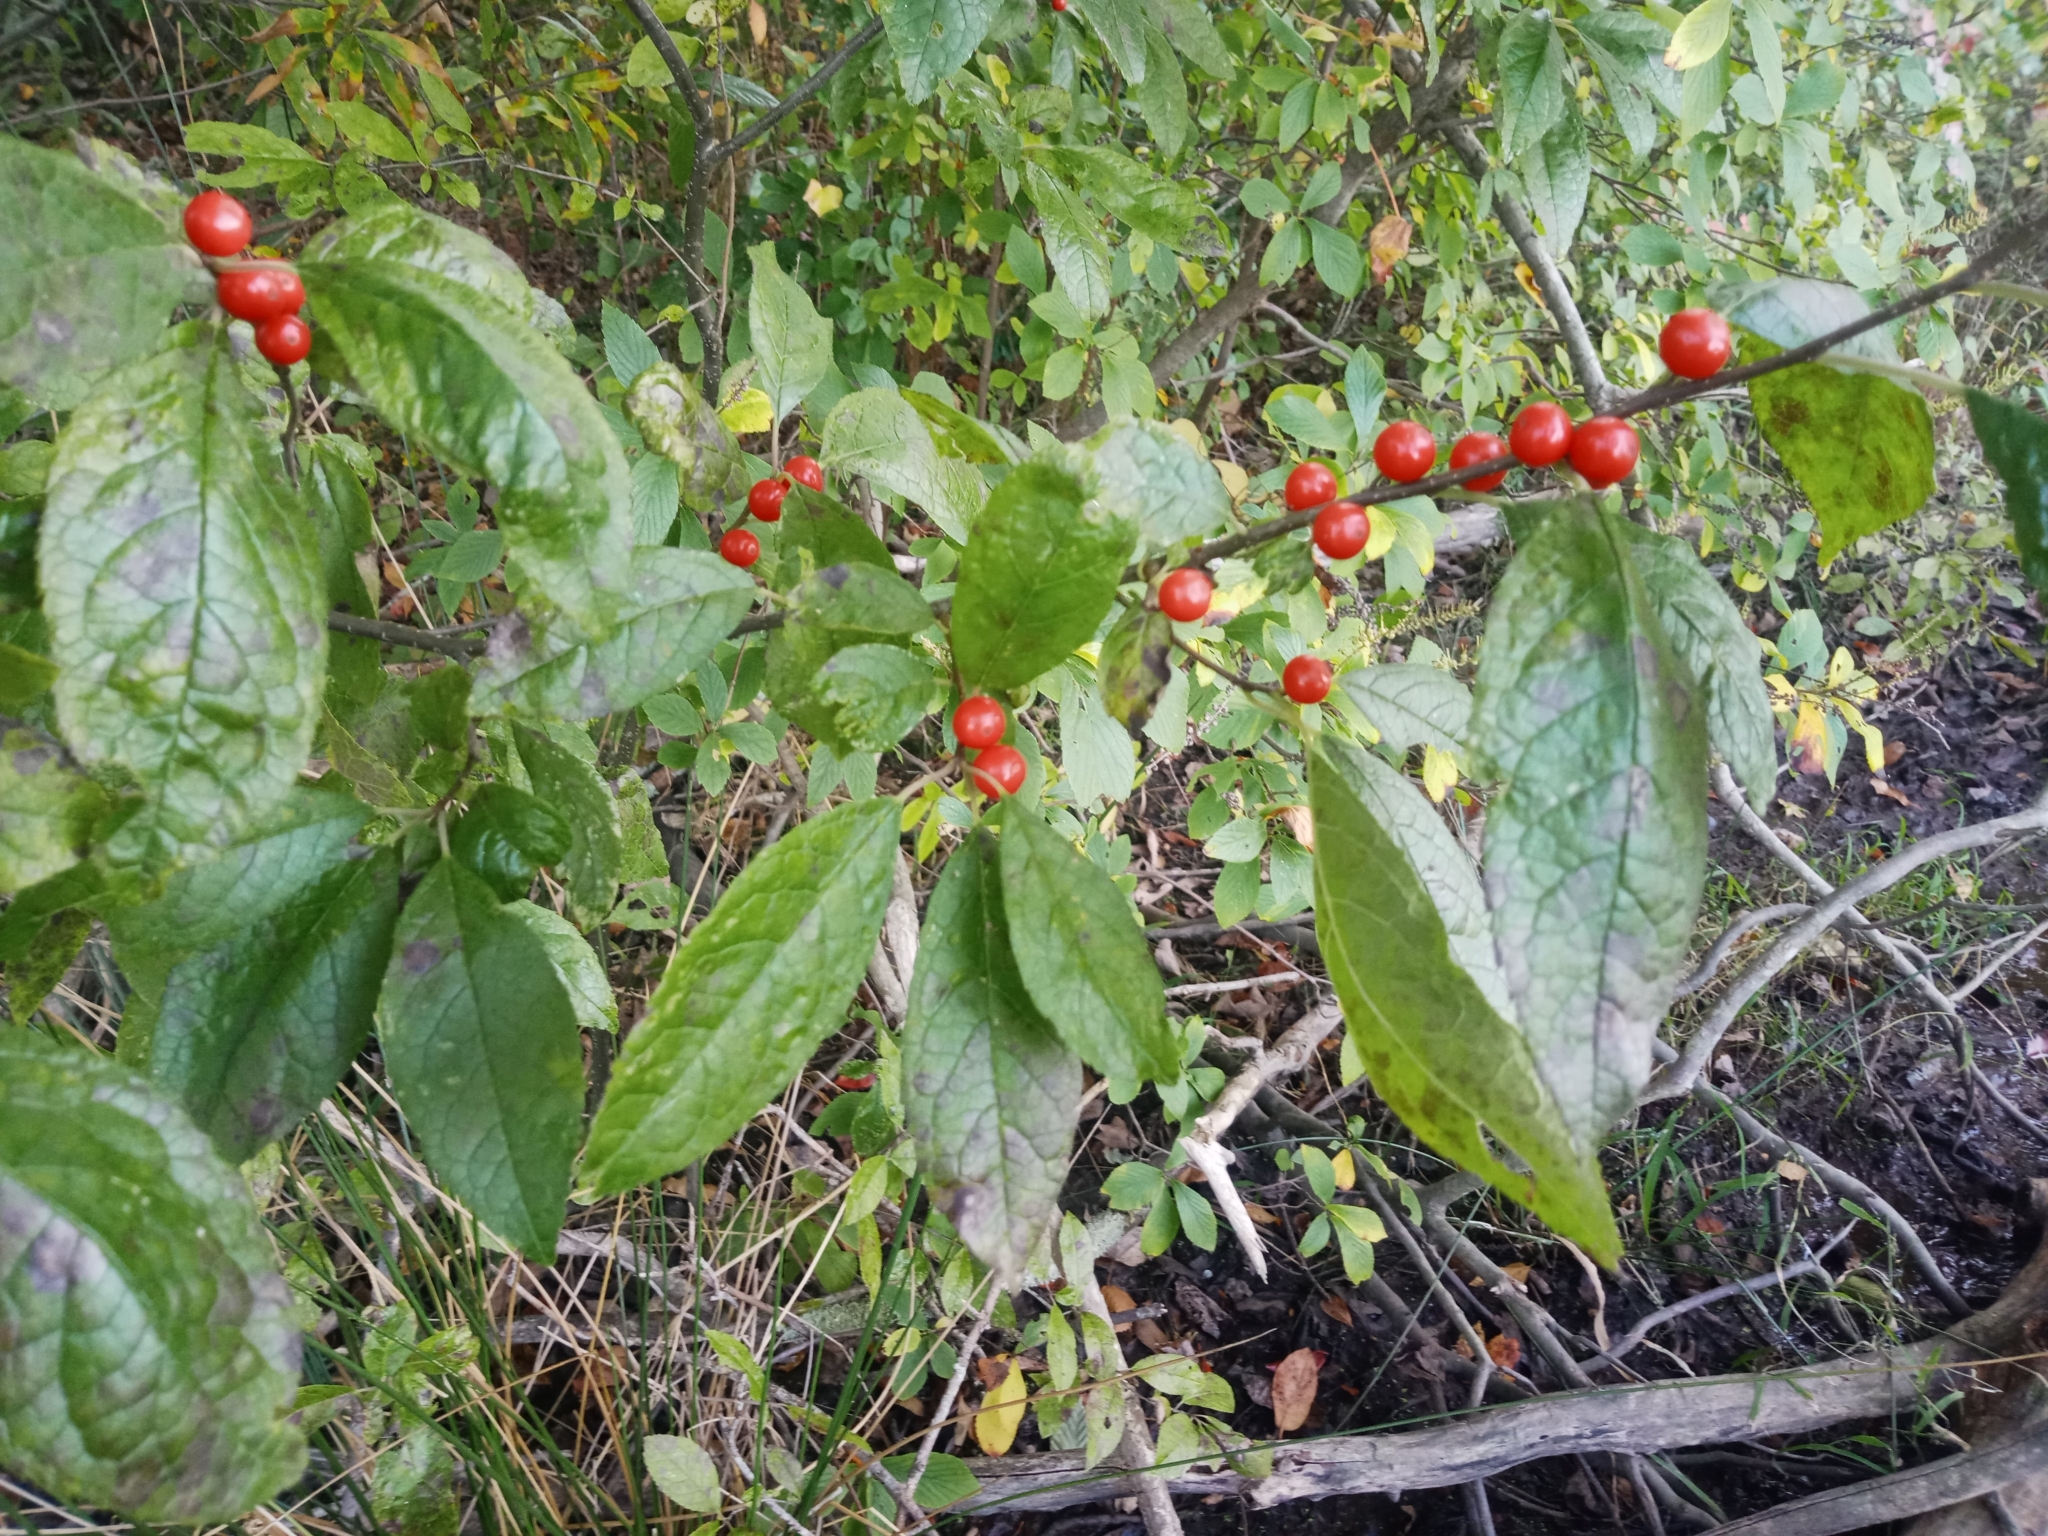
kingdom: Plantae
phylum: Tracheophyta
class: Magnoliopsida
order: Aquifoliales
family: Aquifoliaceae
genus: Ilex
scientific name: Ilex verticillata
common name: Virginia winterberry
